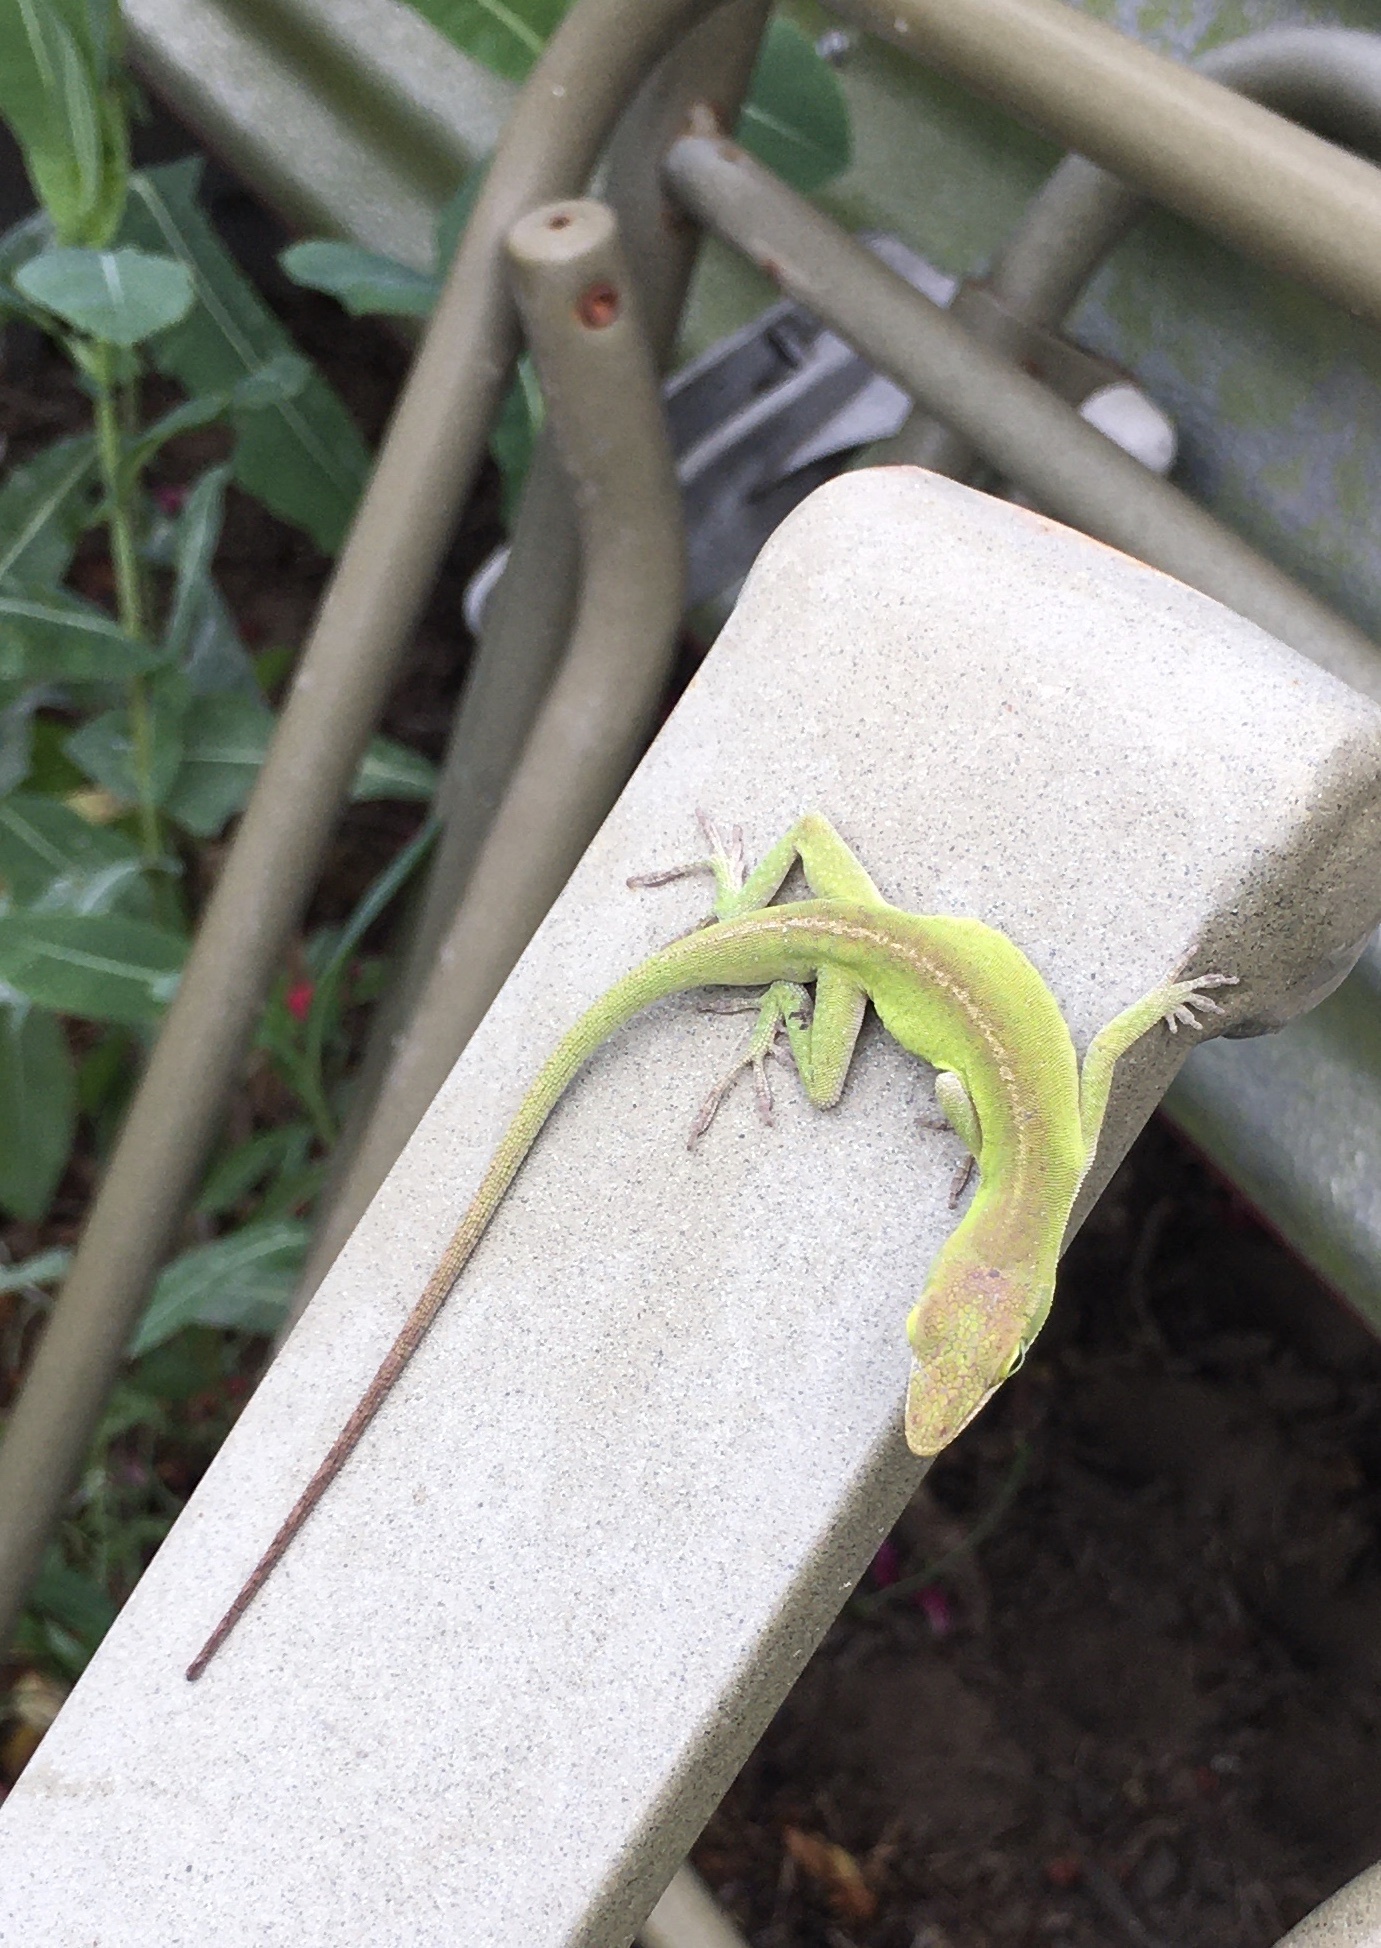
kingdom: Animalia
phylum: Chordata
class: Squamata
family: Dactyloidae
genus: Anolis
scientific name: Anolis carolinensis
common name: Green anole
